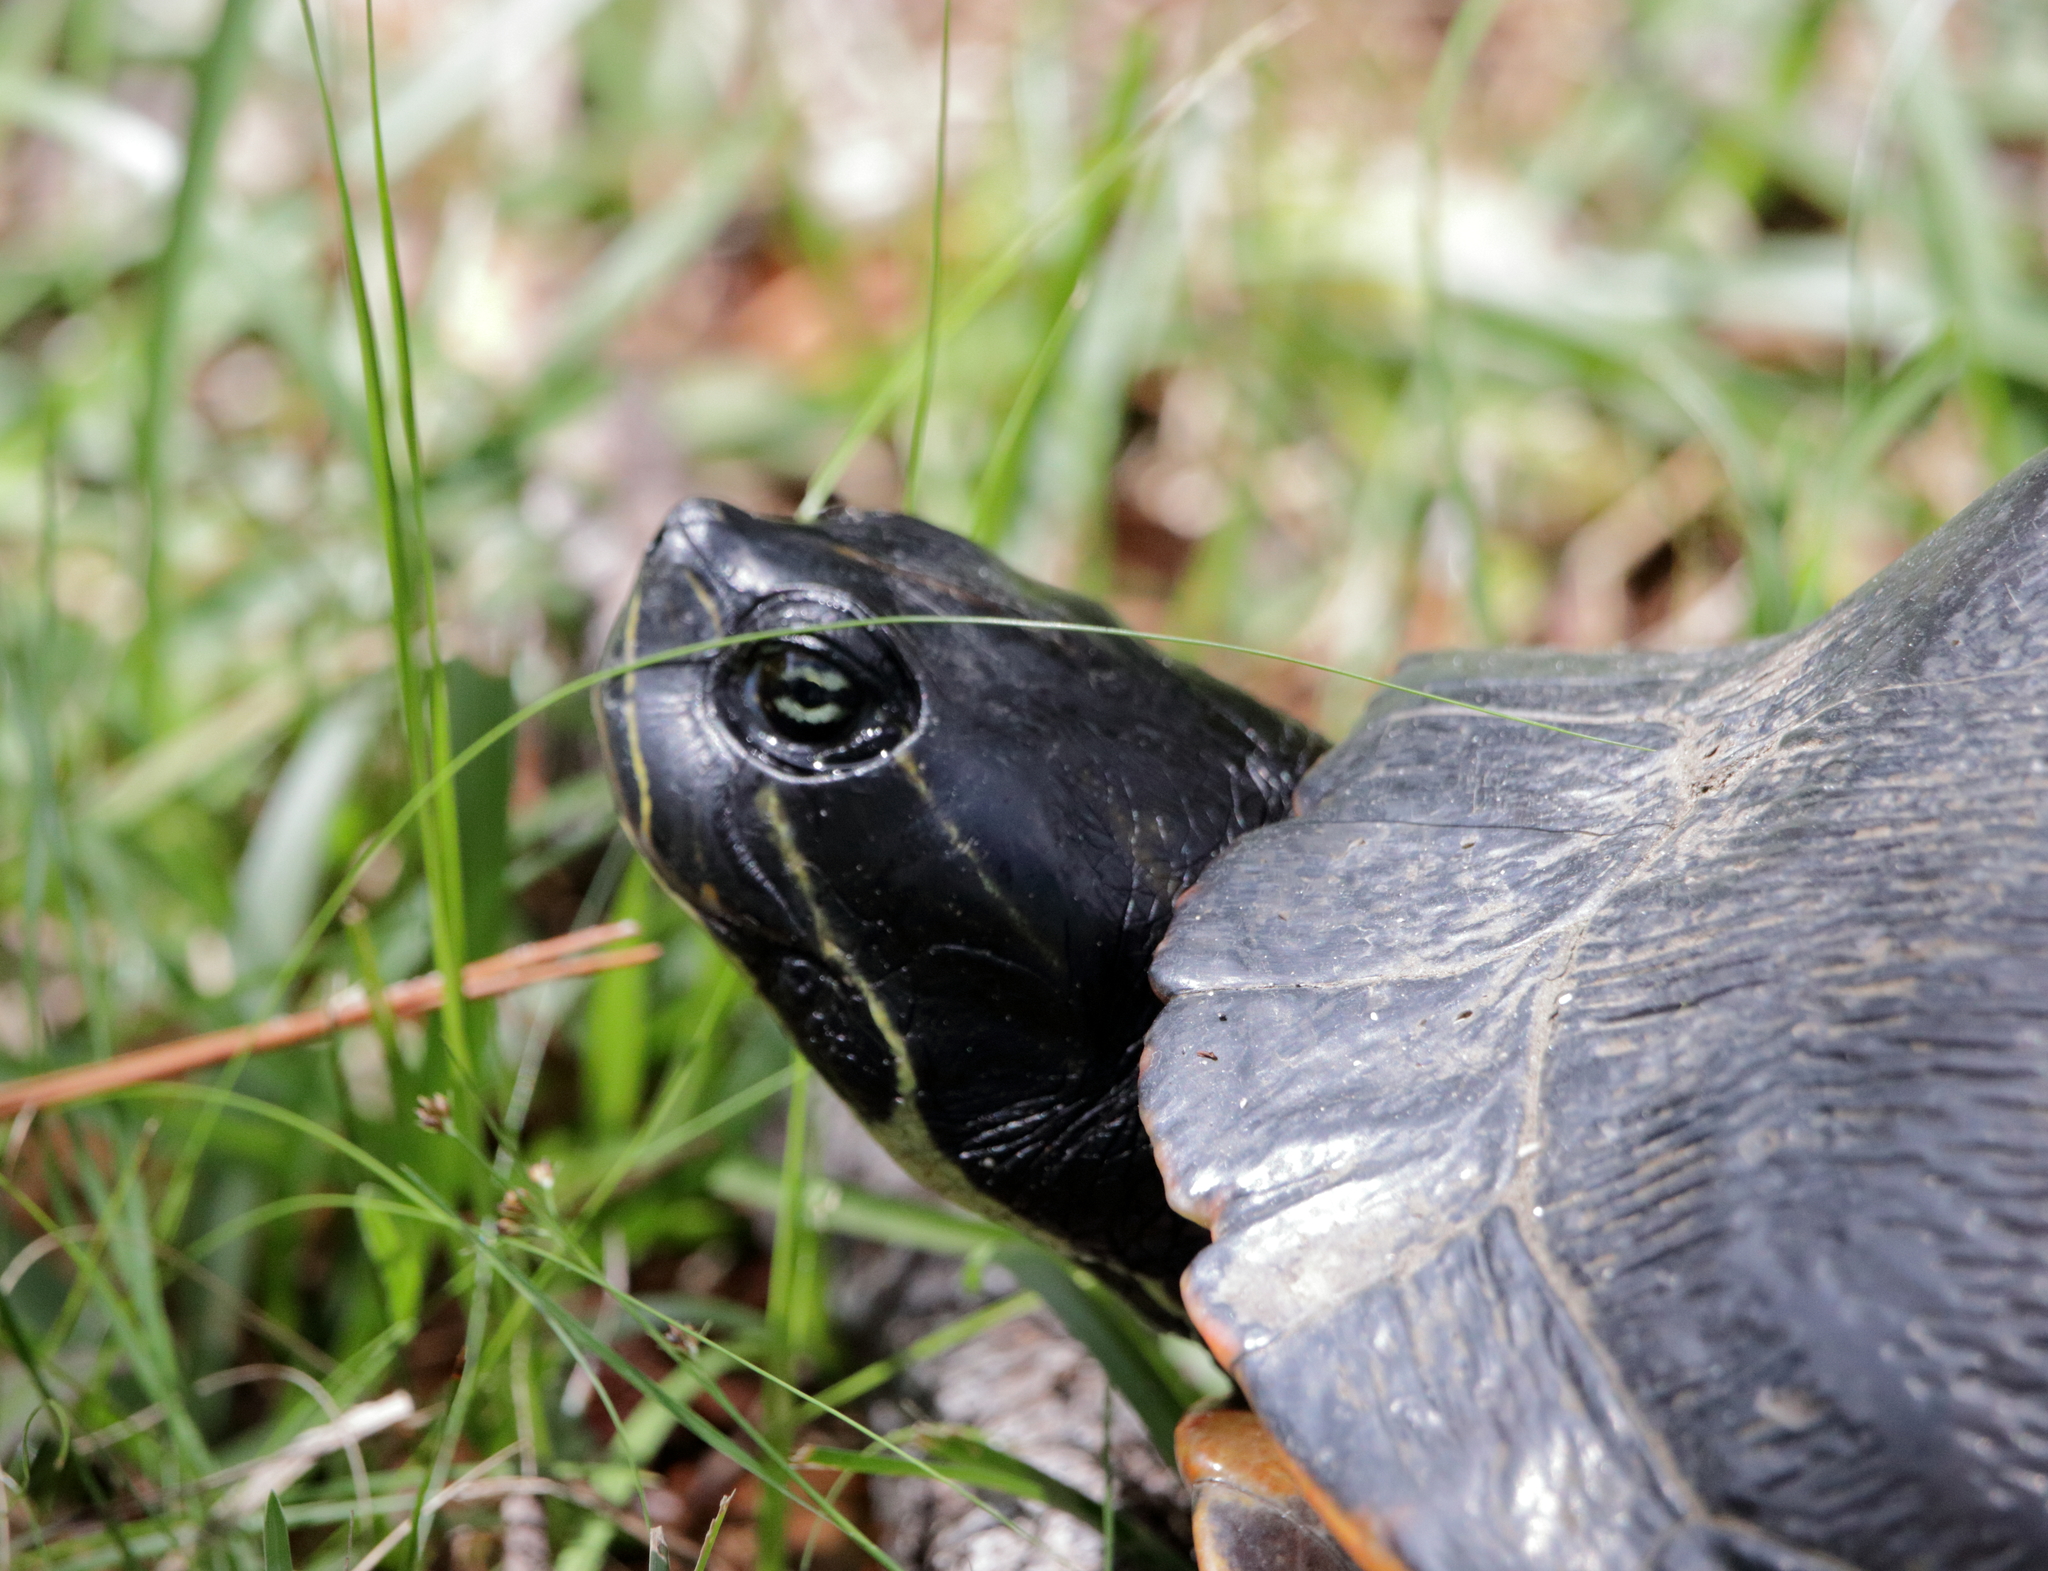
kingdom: Animalia
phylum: Chordata
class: Testudines
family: Emydidae
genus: Pseudemys
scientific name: Pseudemys alabamensis
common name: Alabama red-bellied turtle
